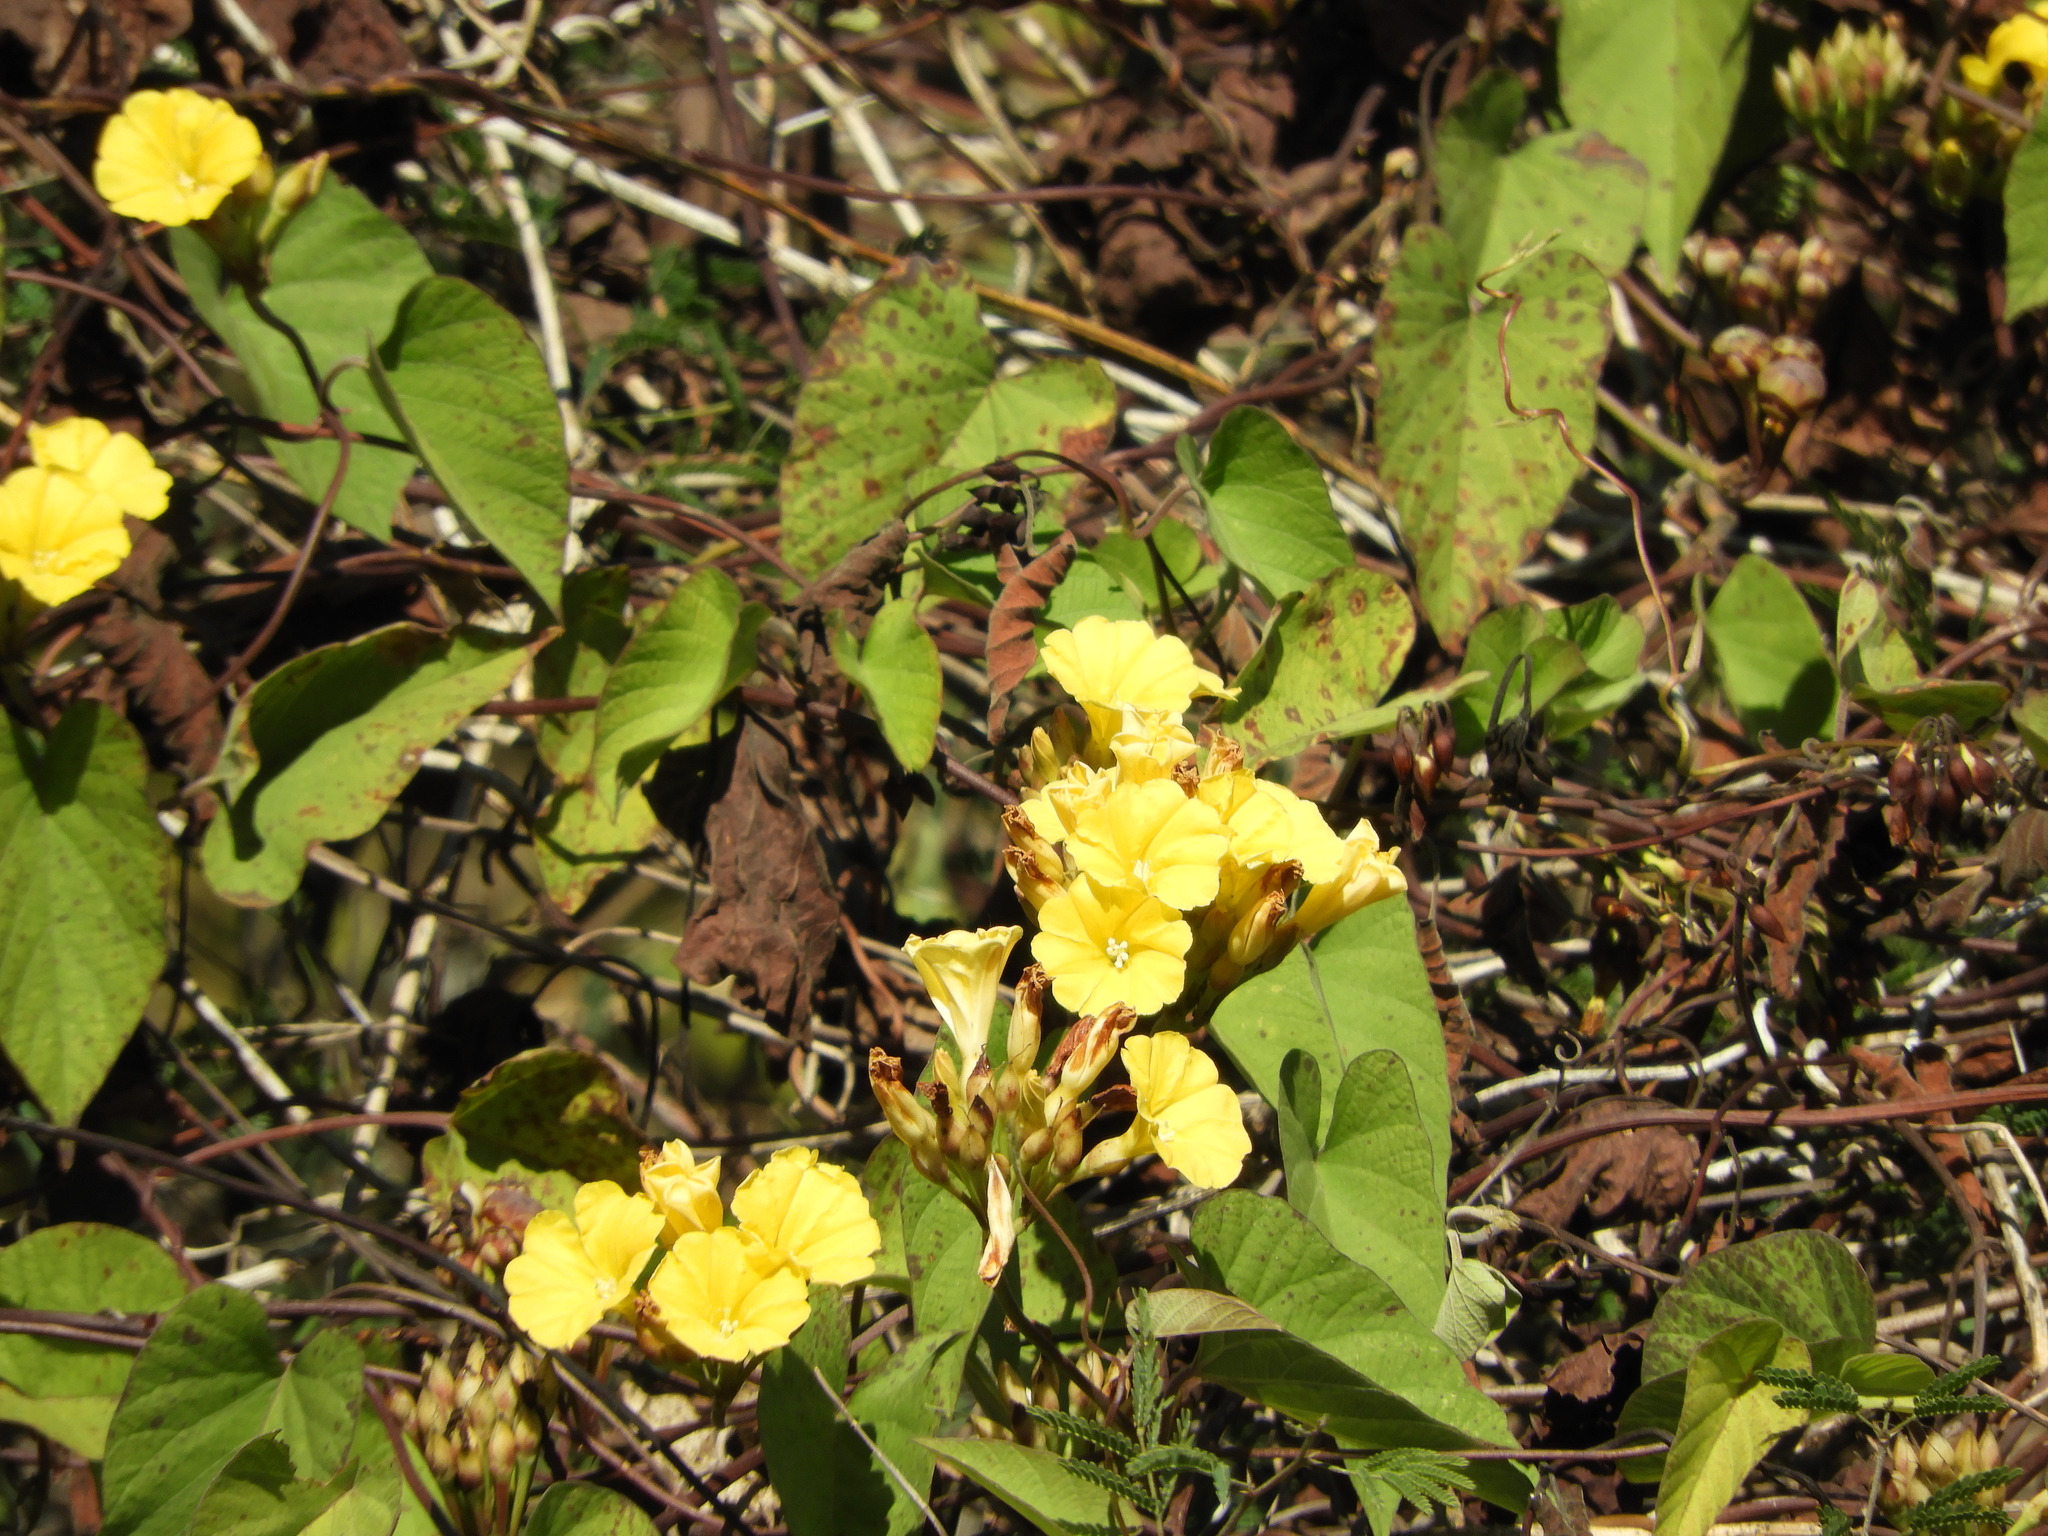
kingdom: Plantae
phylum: Tracheophyta
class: Magnoliopsida
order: Solanales
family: Convolvulaceae
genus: Camonea
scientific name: Camonea umbellata
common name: Hogvine
